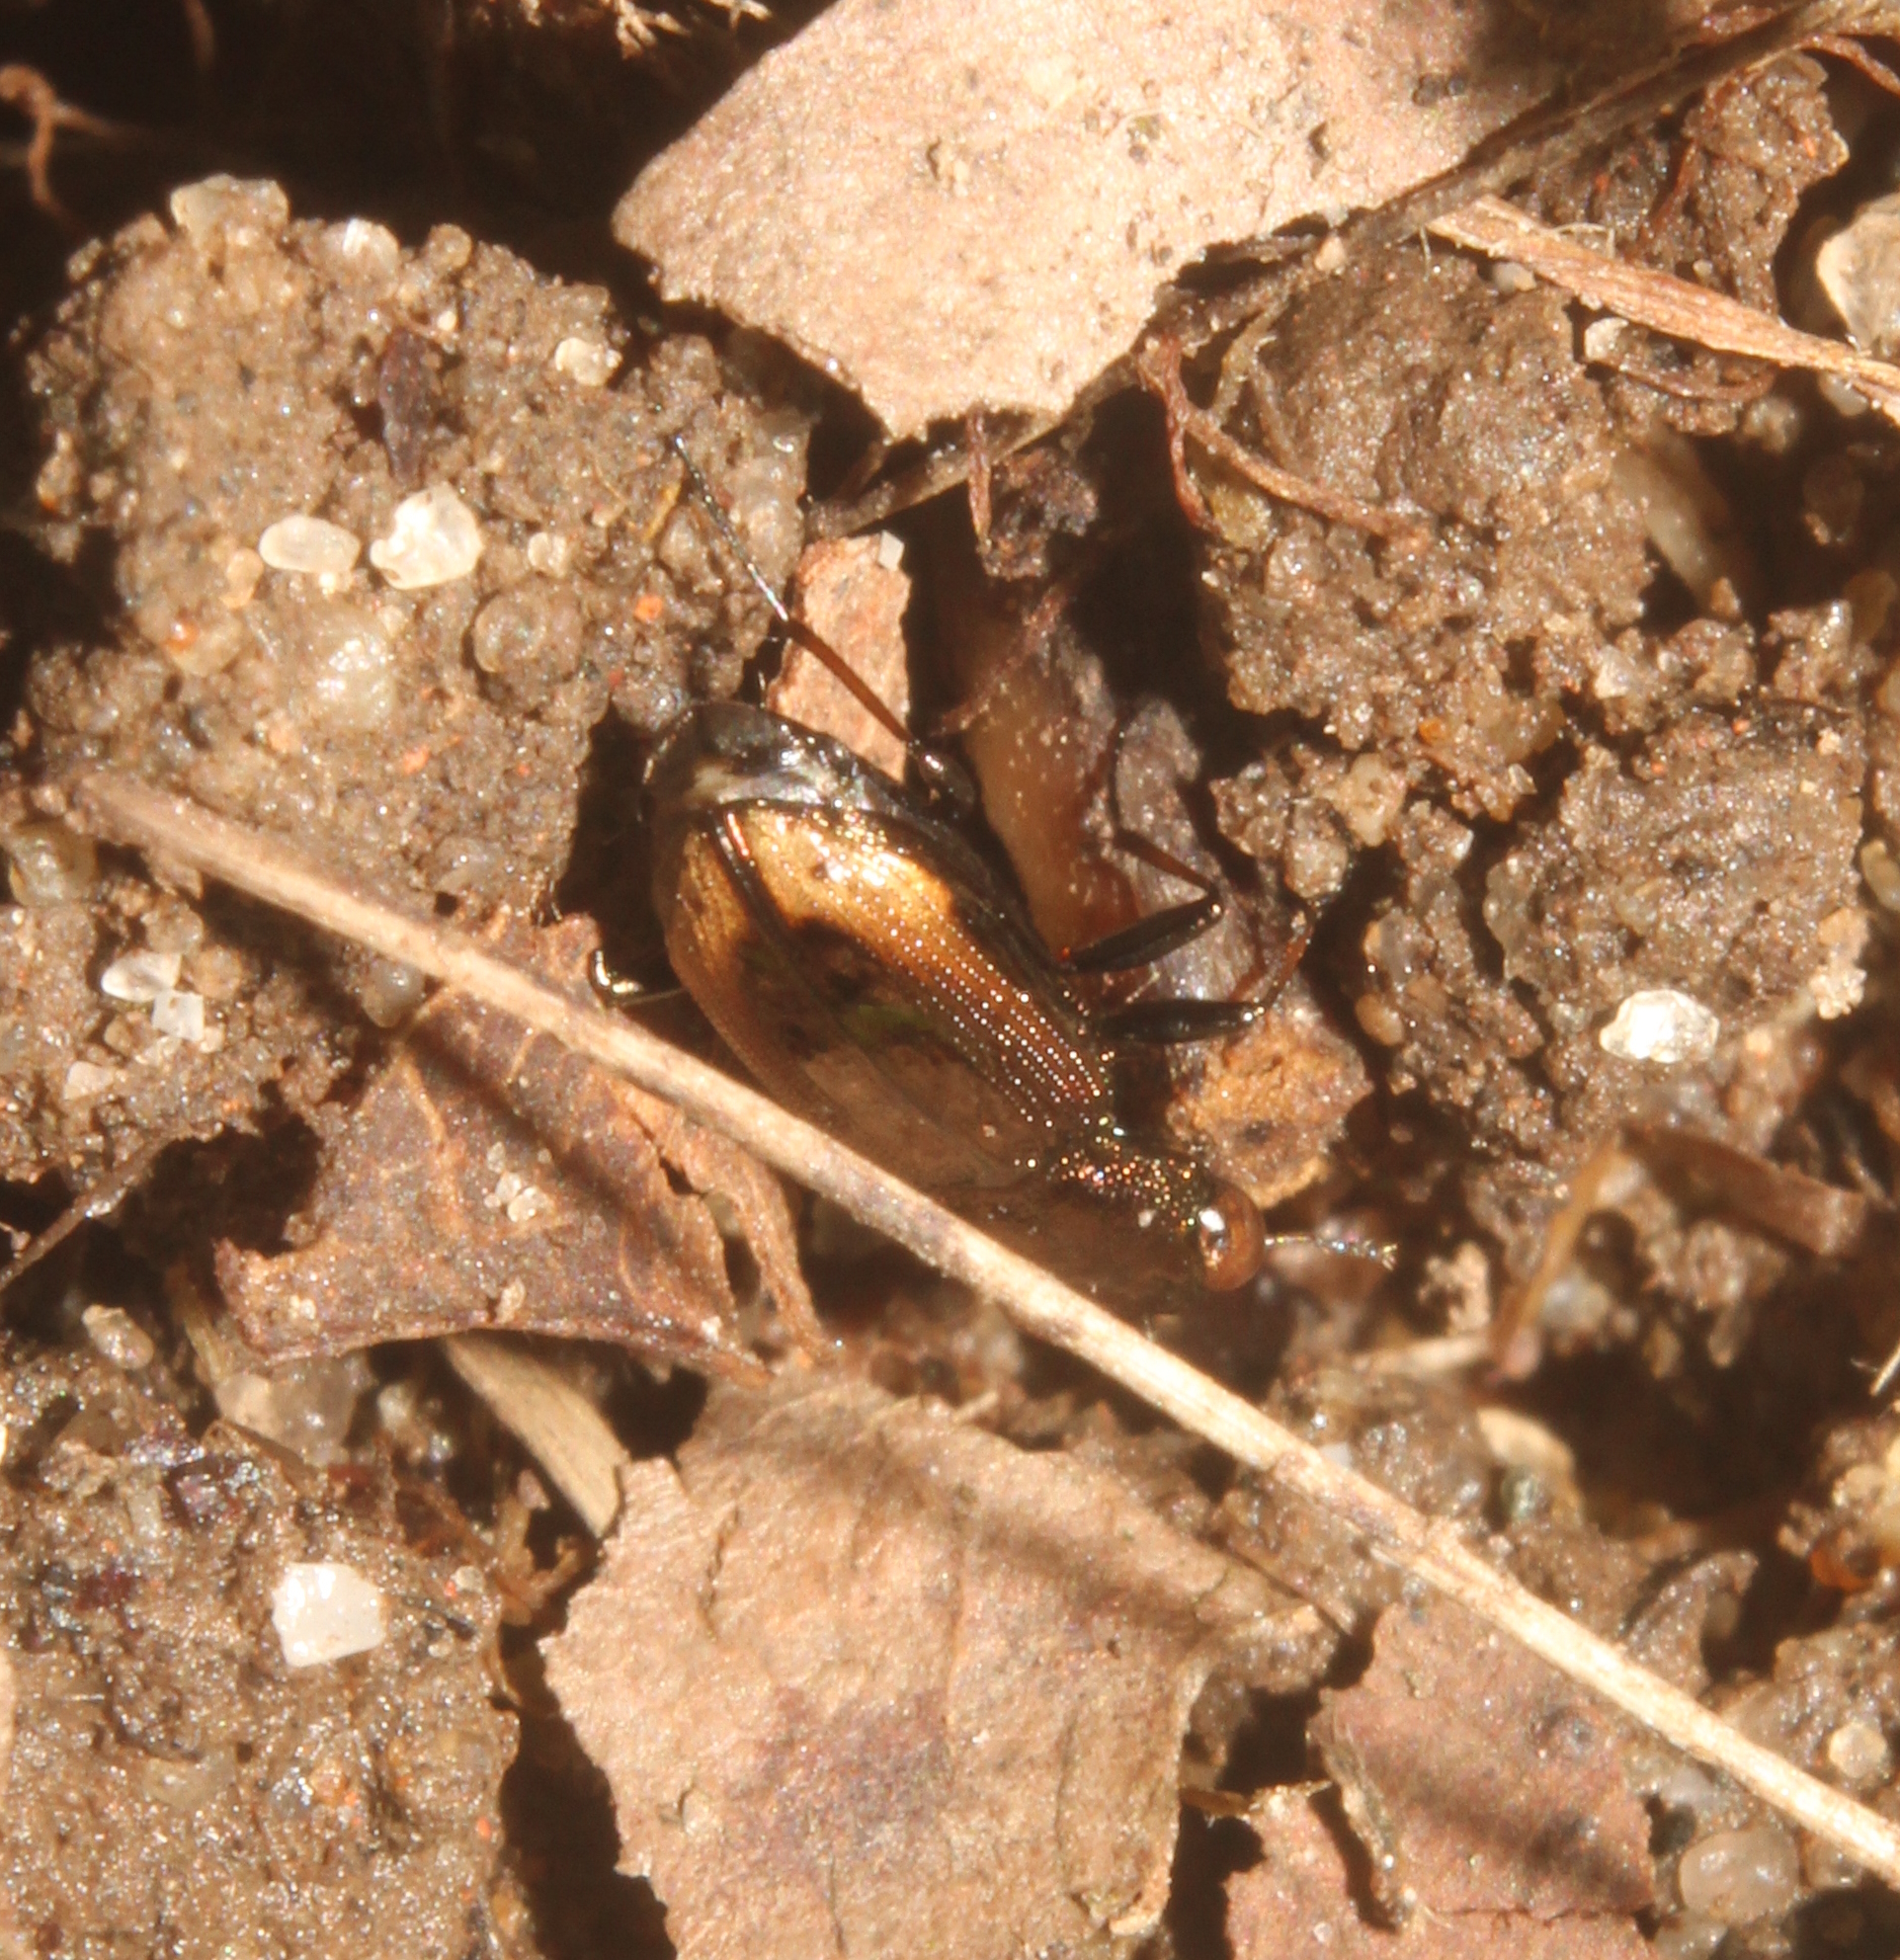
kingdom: Animalia
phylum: Arthropoda
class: Insecta
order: Coleoptera
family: Carabidae
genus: Notiophilus
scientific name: Notiophilus biguttatus
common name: Spotted gazelle beetle
